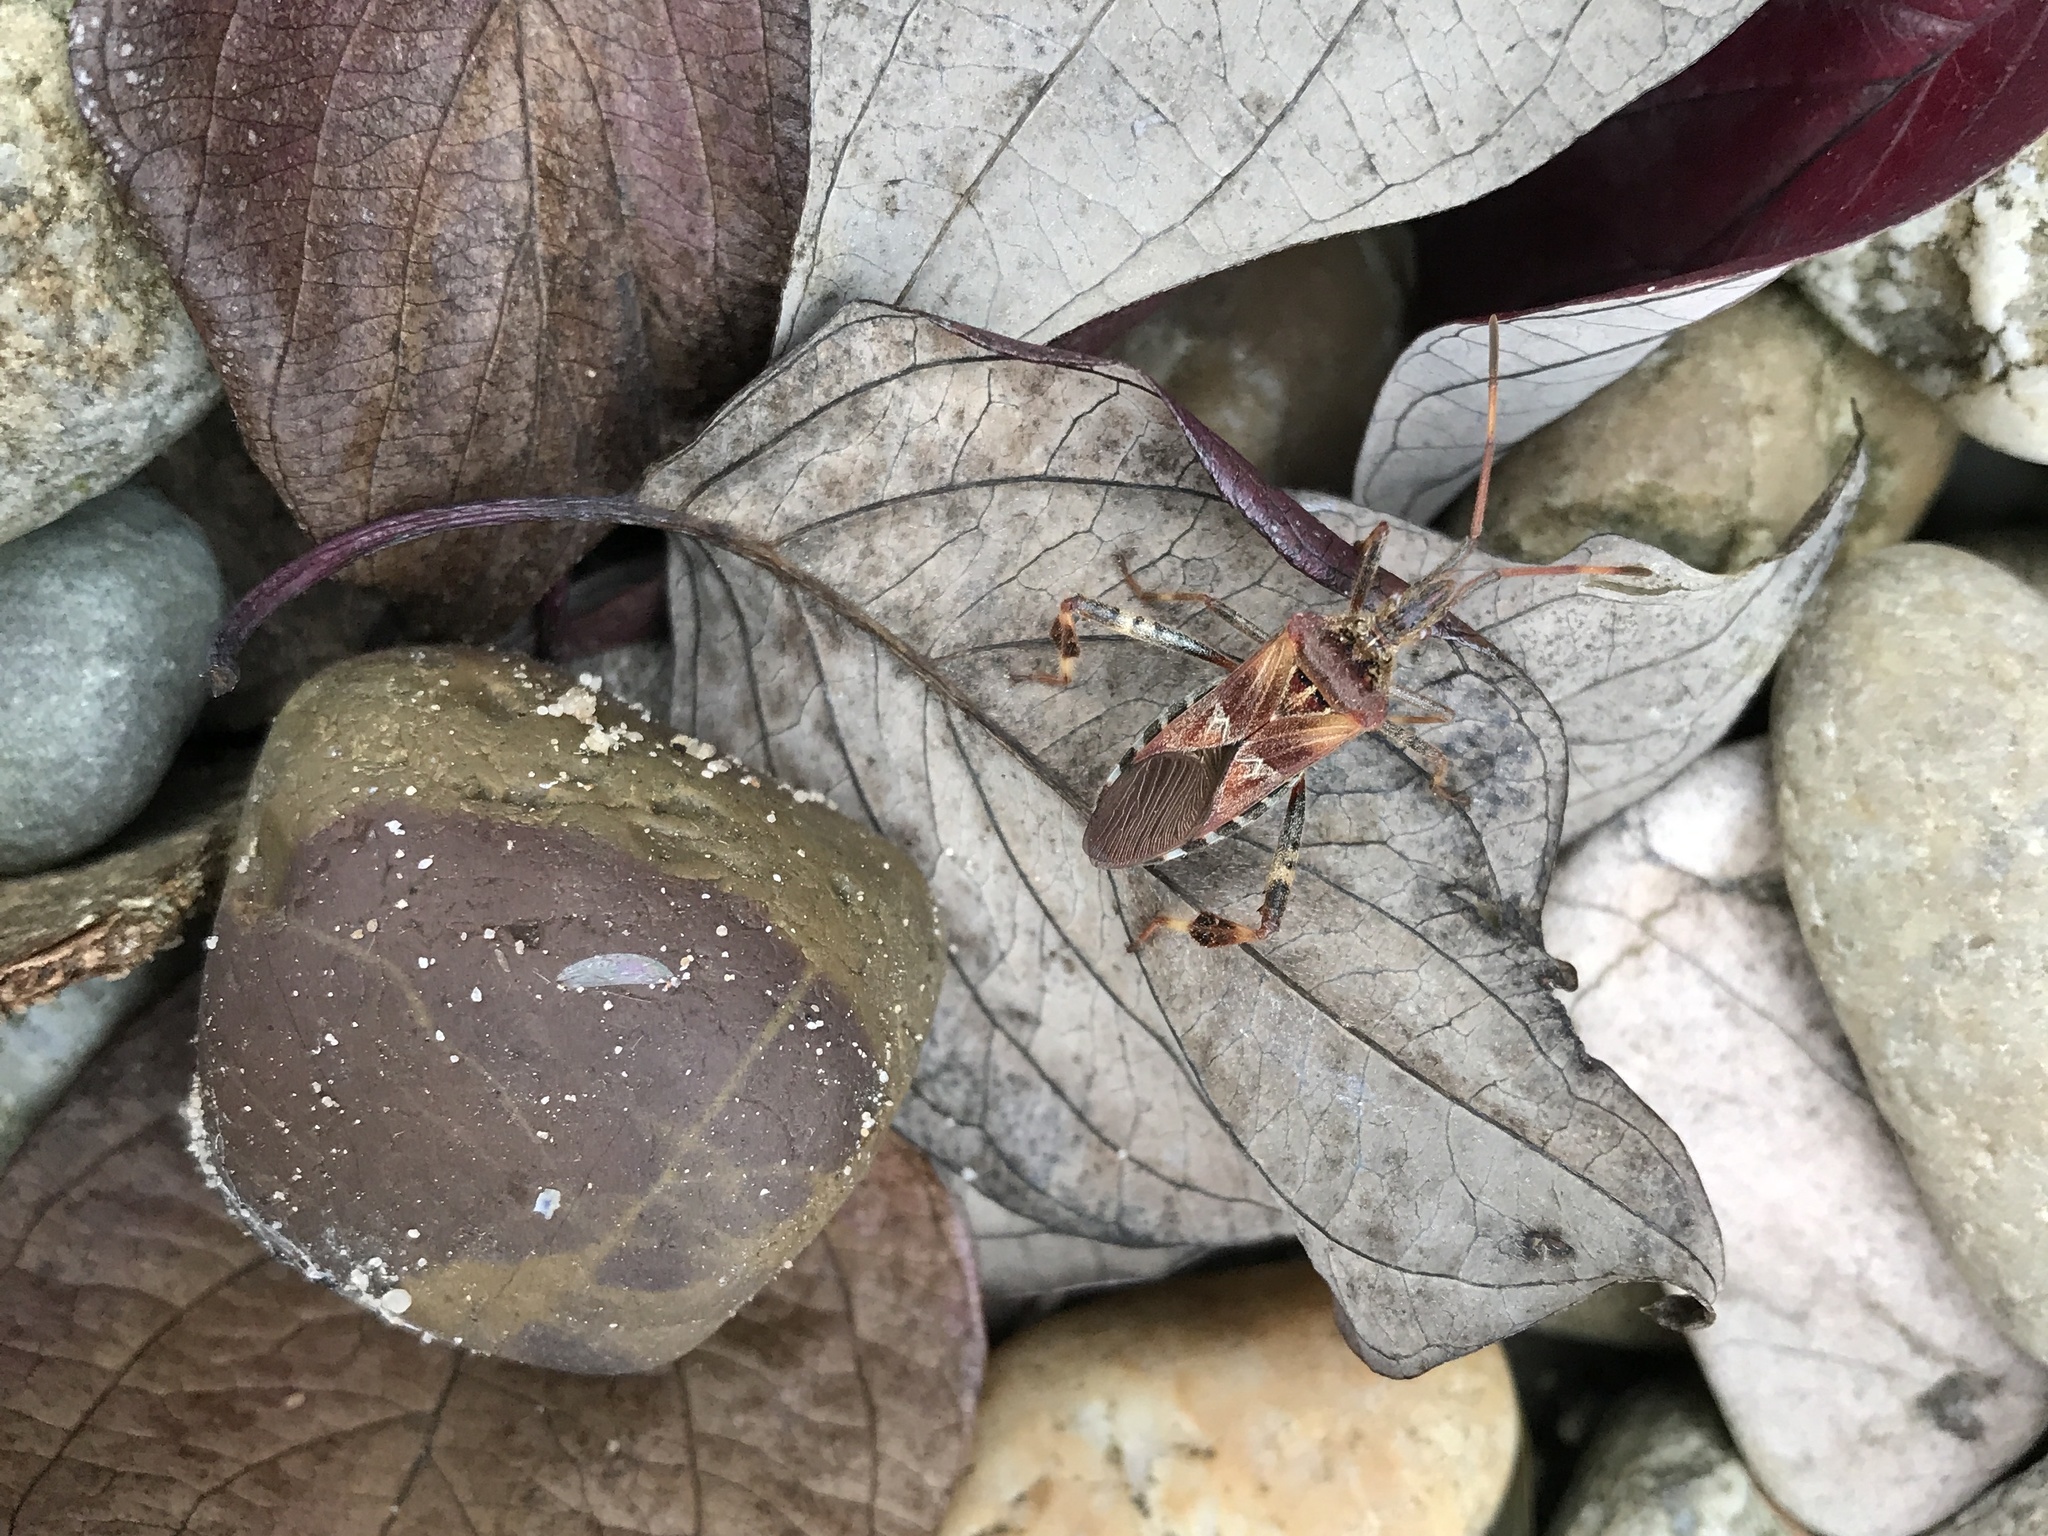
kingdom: Animalia
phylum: Arthropoda
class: Insecta
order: Hemiptera
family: Coreidae
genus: Leptoglossus
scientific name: Leptoglossus occidentalis
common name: Western conifer-seed bug
